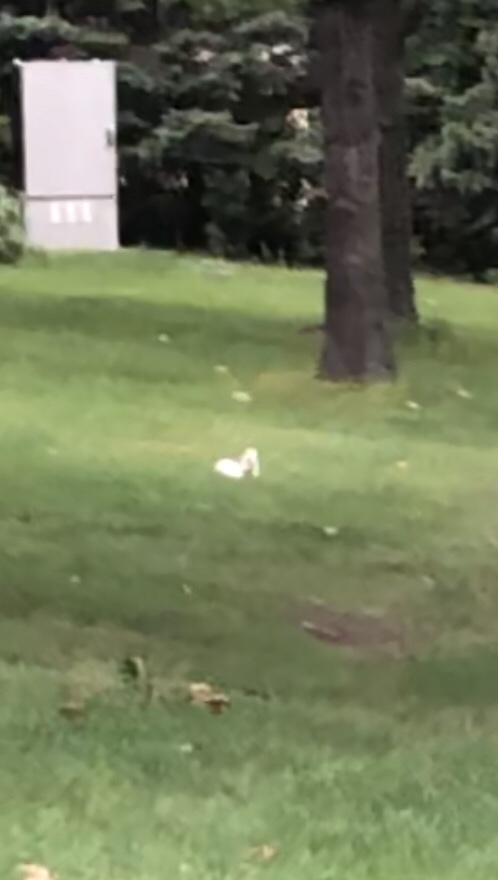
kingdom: Animalia
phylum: Chordata
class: Mammalia
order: Rodentia
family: Sciuridae
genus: Sciurus
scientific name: Sciurus carolinensis
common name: Eastern gray squirrel
